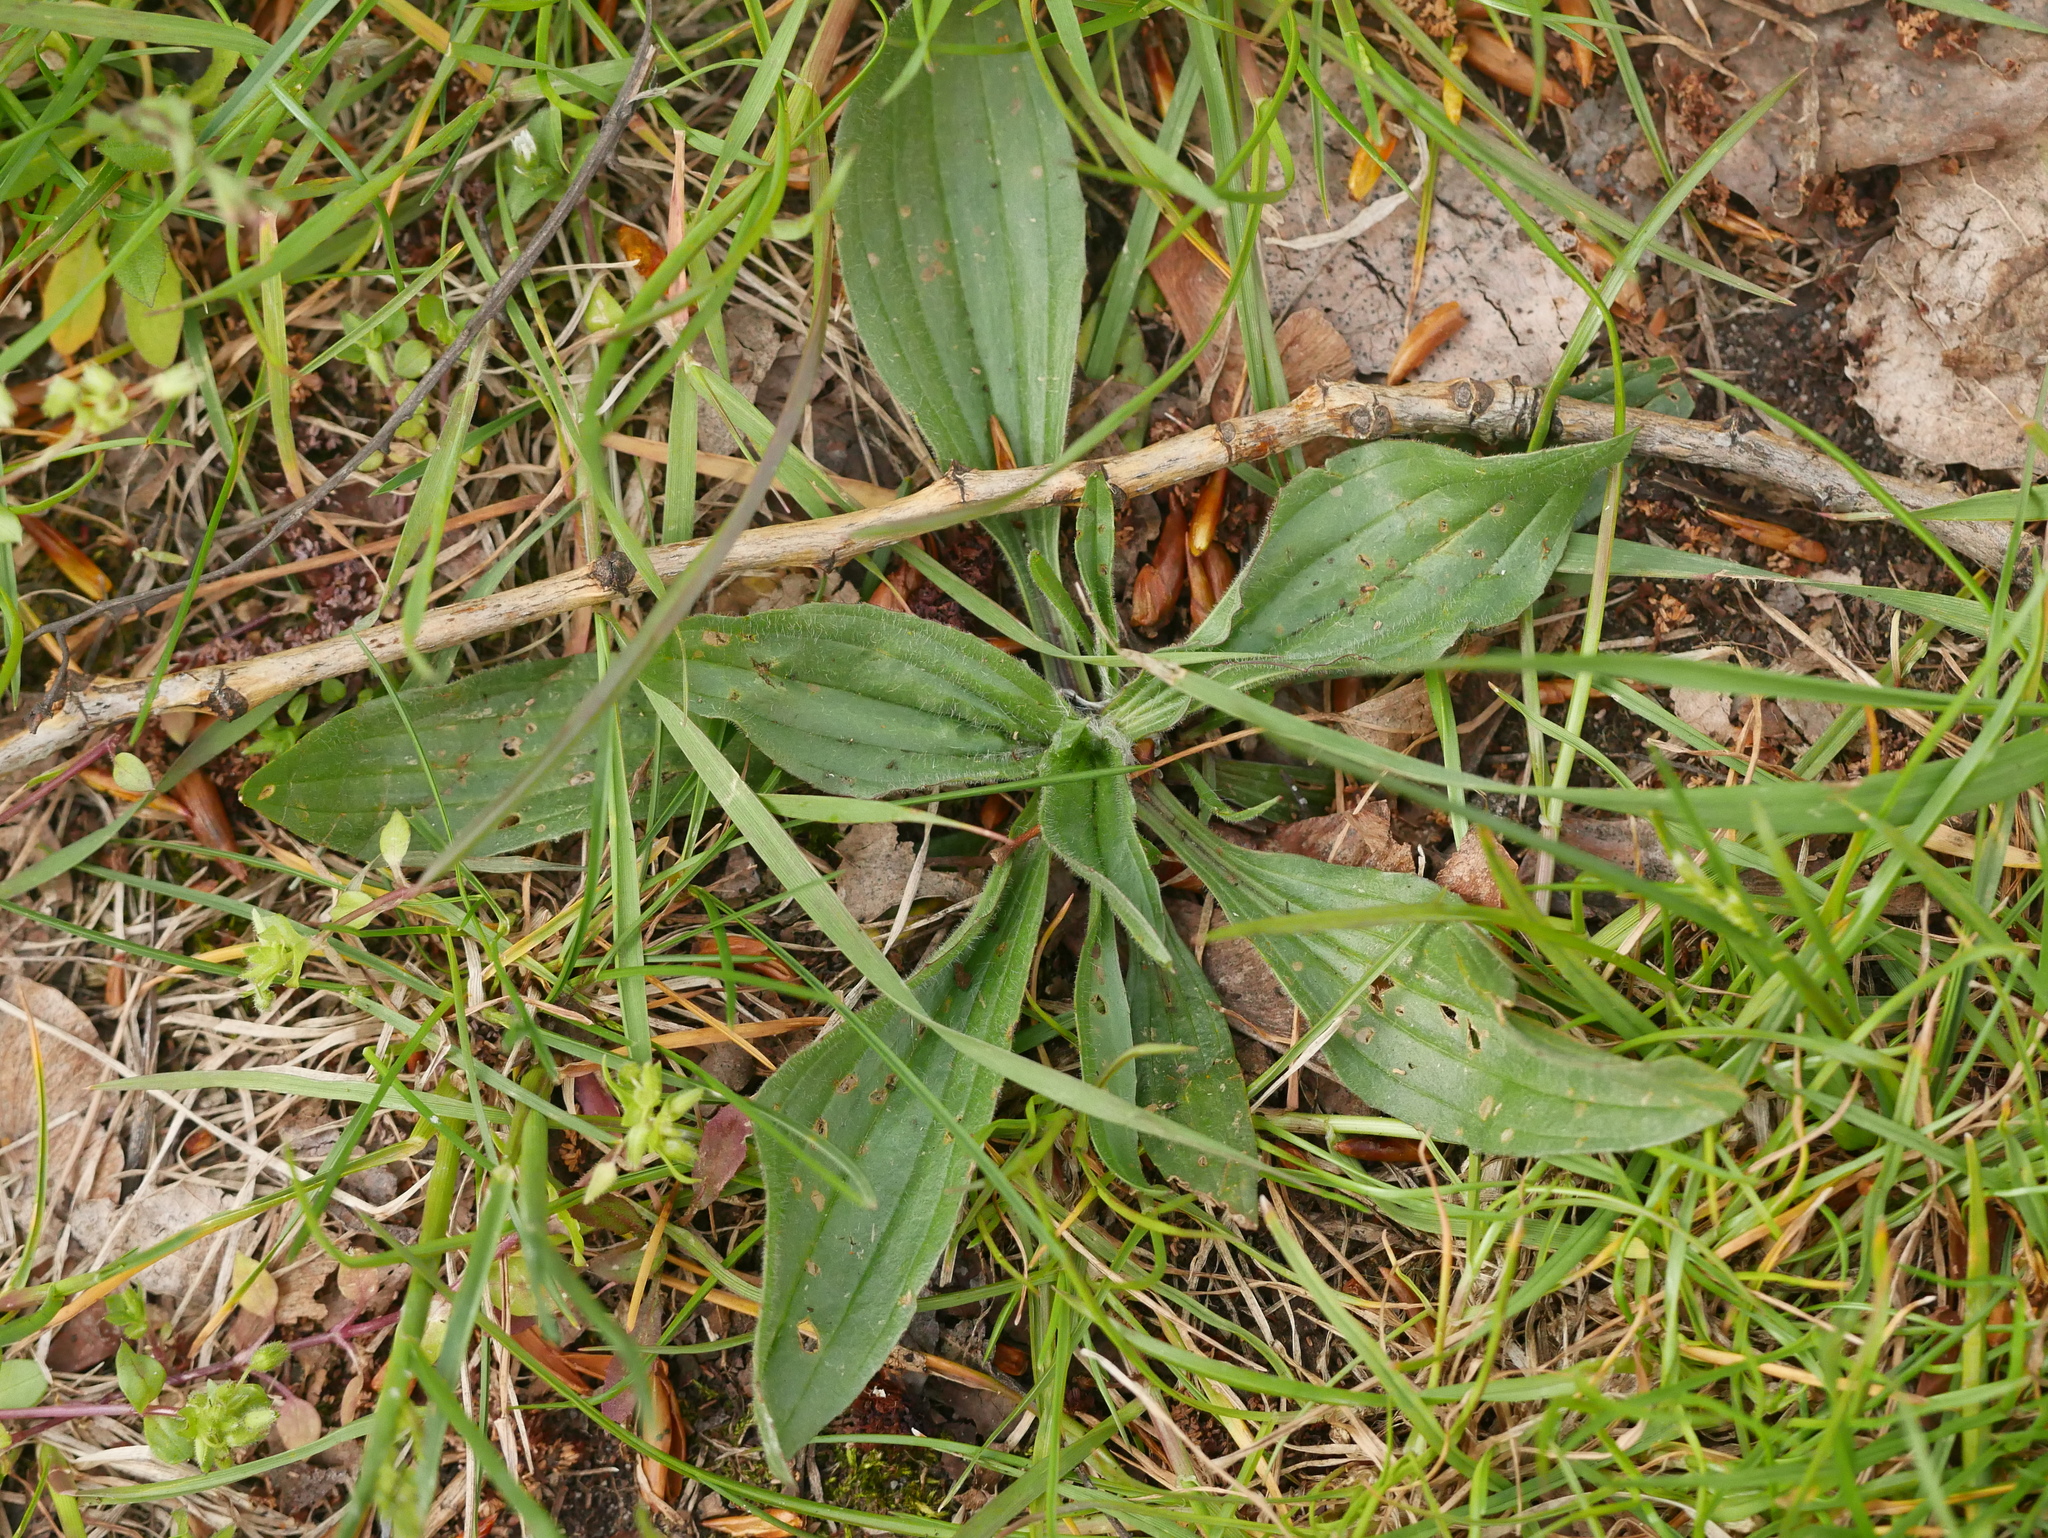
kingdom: Plantae
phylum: Tracheophyta
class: Magnoliopsida
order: Lamiales
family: Plantaginaceae
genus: Plantago
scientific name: Plantago lanceolata
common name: Ribwort plantain
